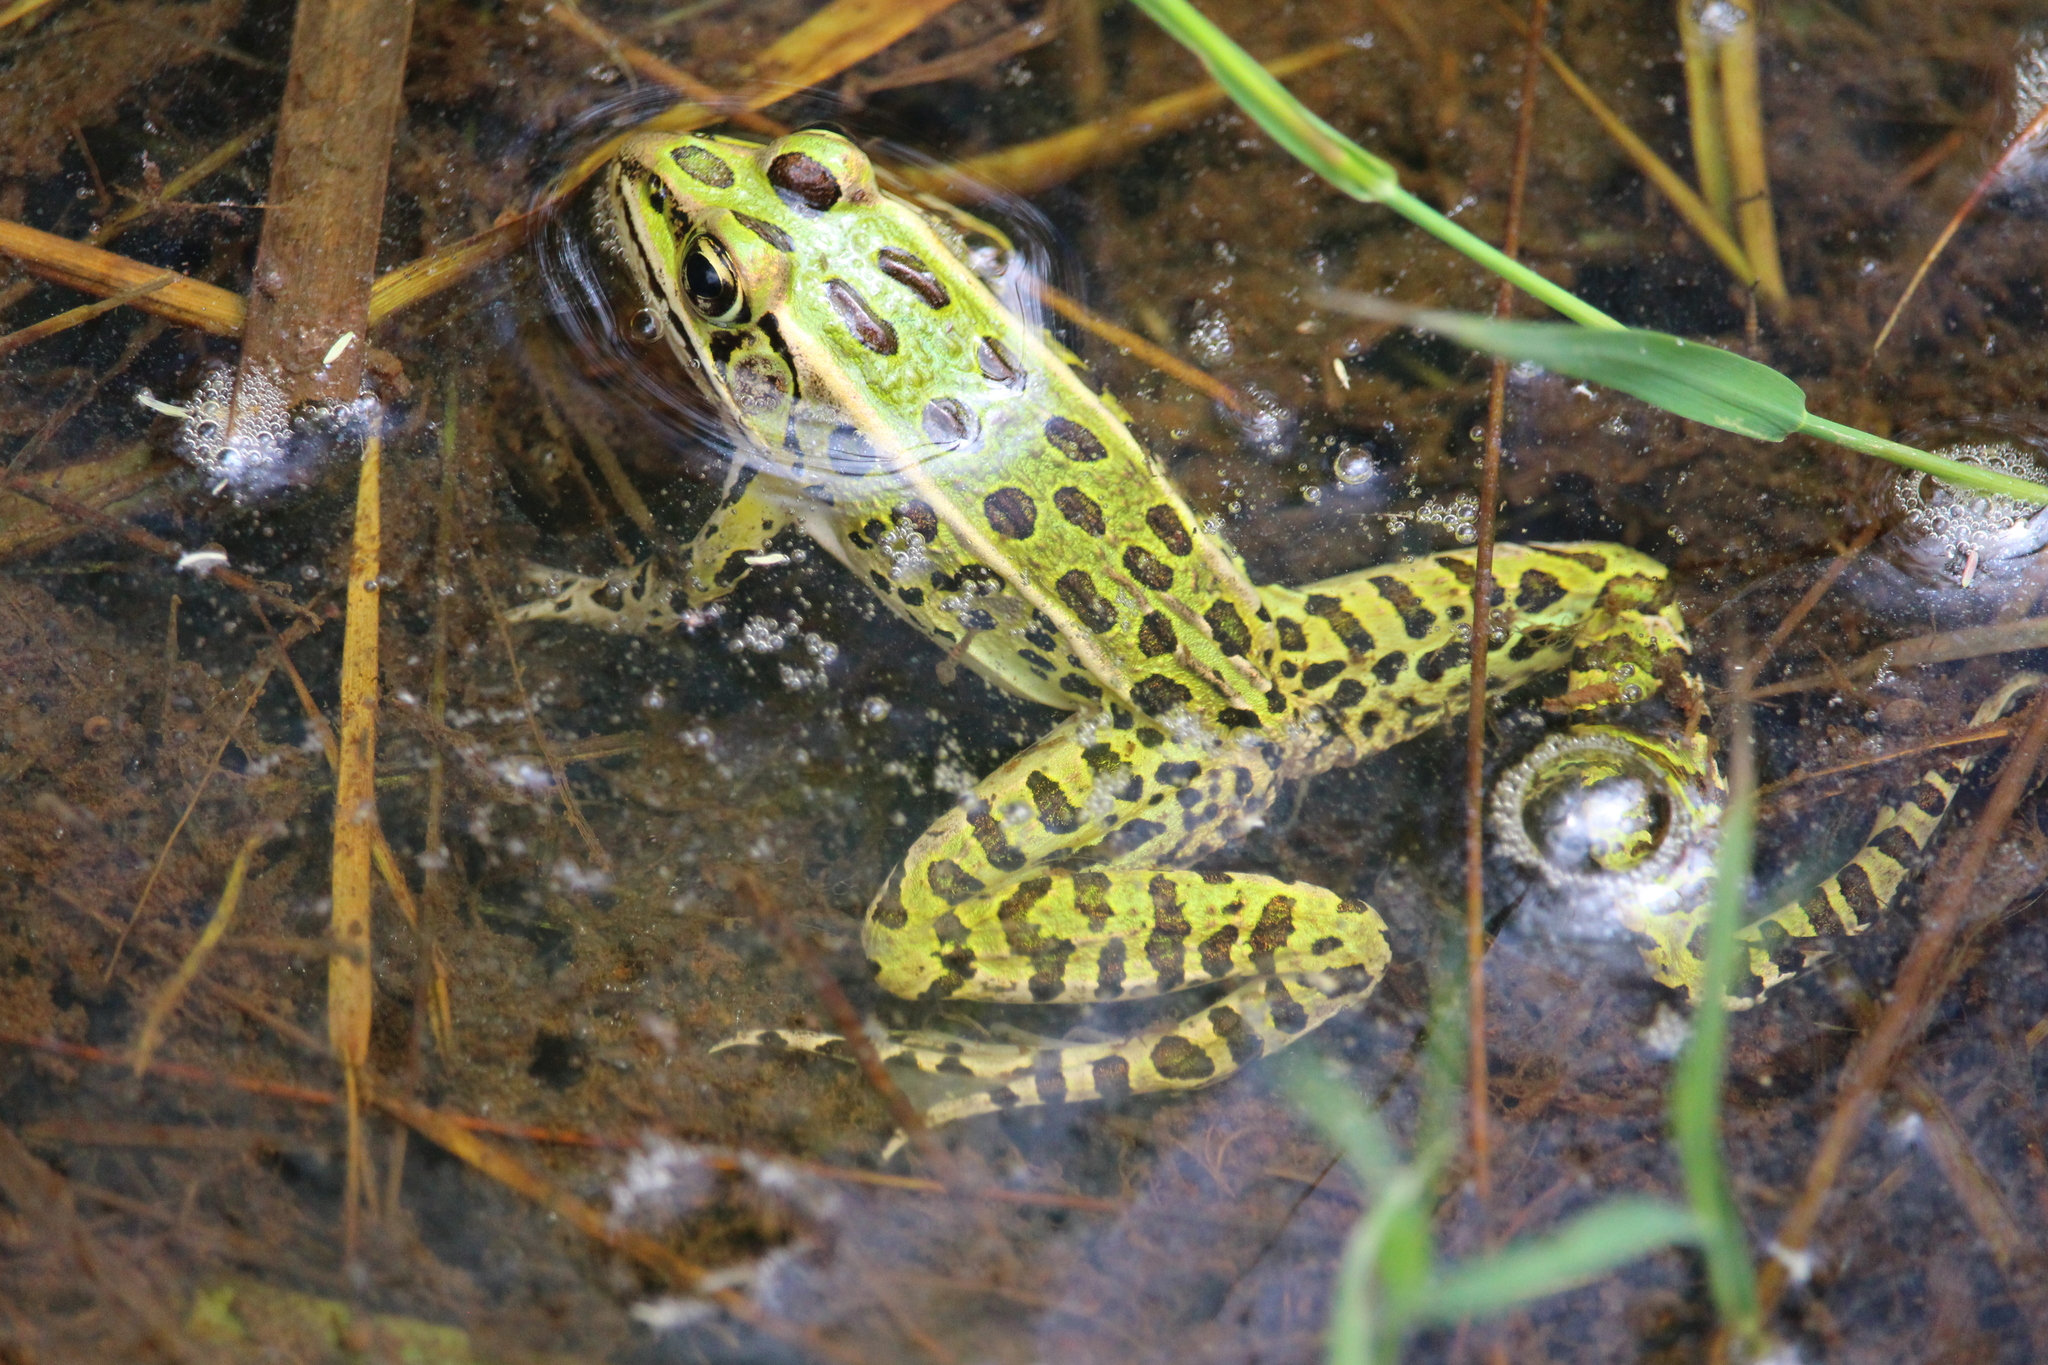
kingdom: Animalia
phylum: Chordata
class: Amphibia
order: Anura
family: Ranidae
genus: Lithobates
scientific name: Lithobates pipiens
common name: Northern leopard frog
